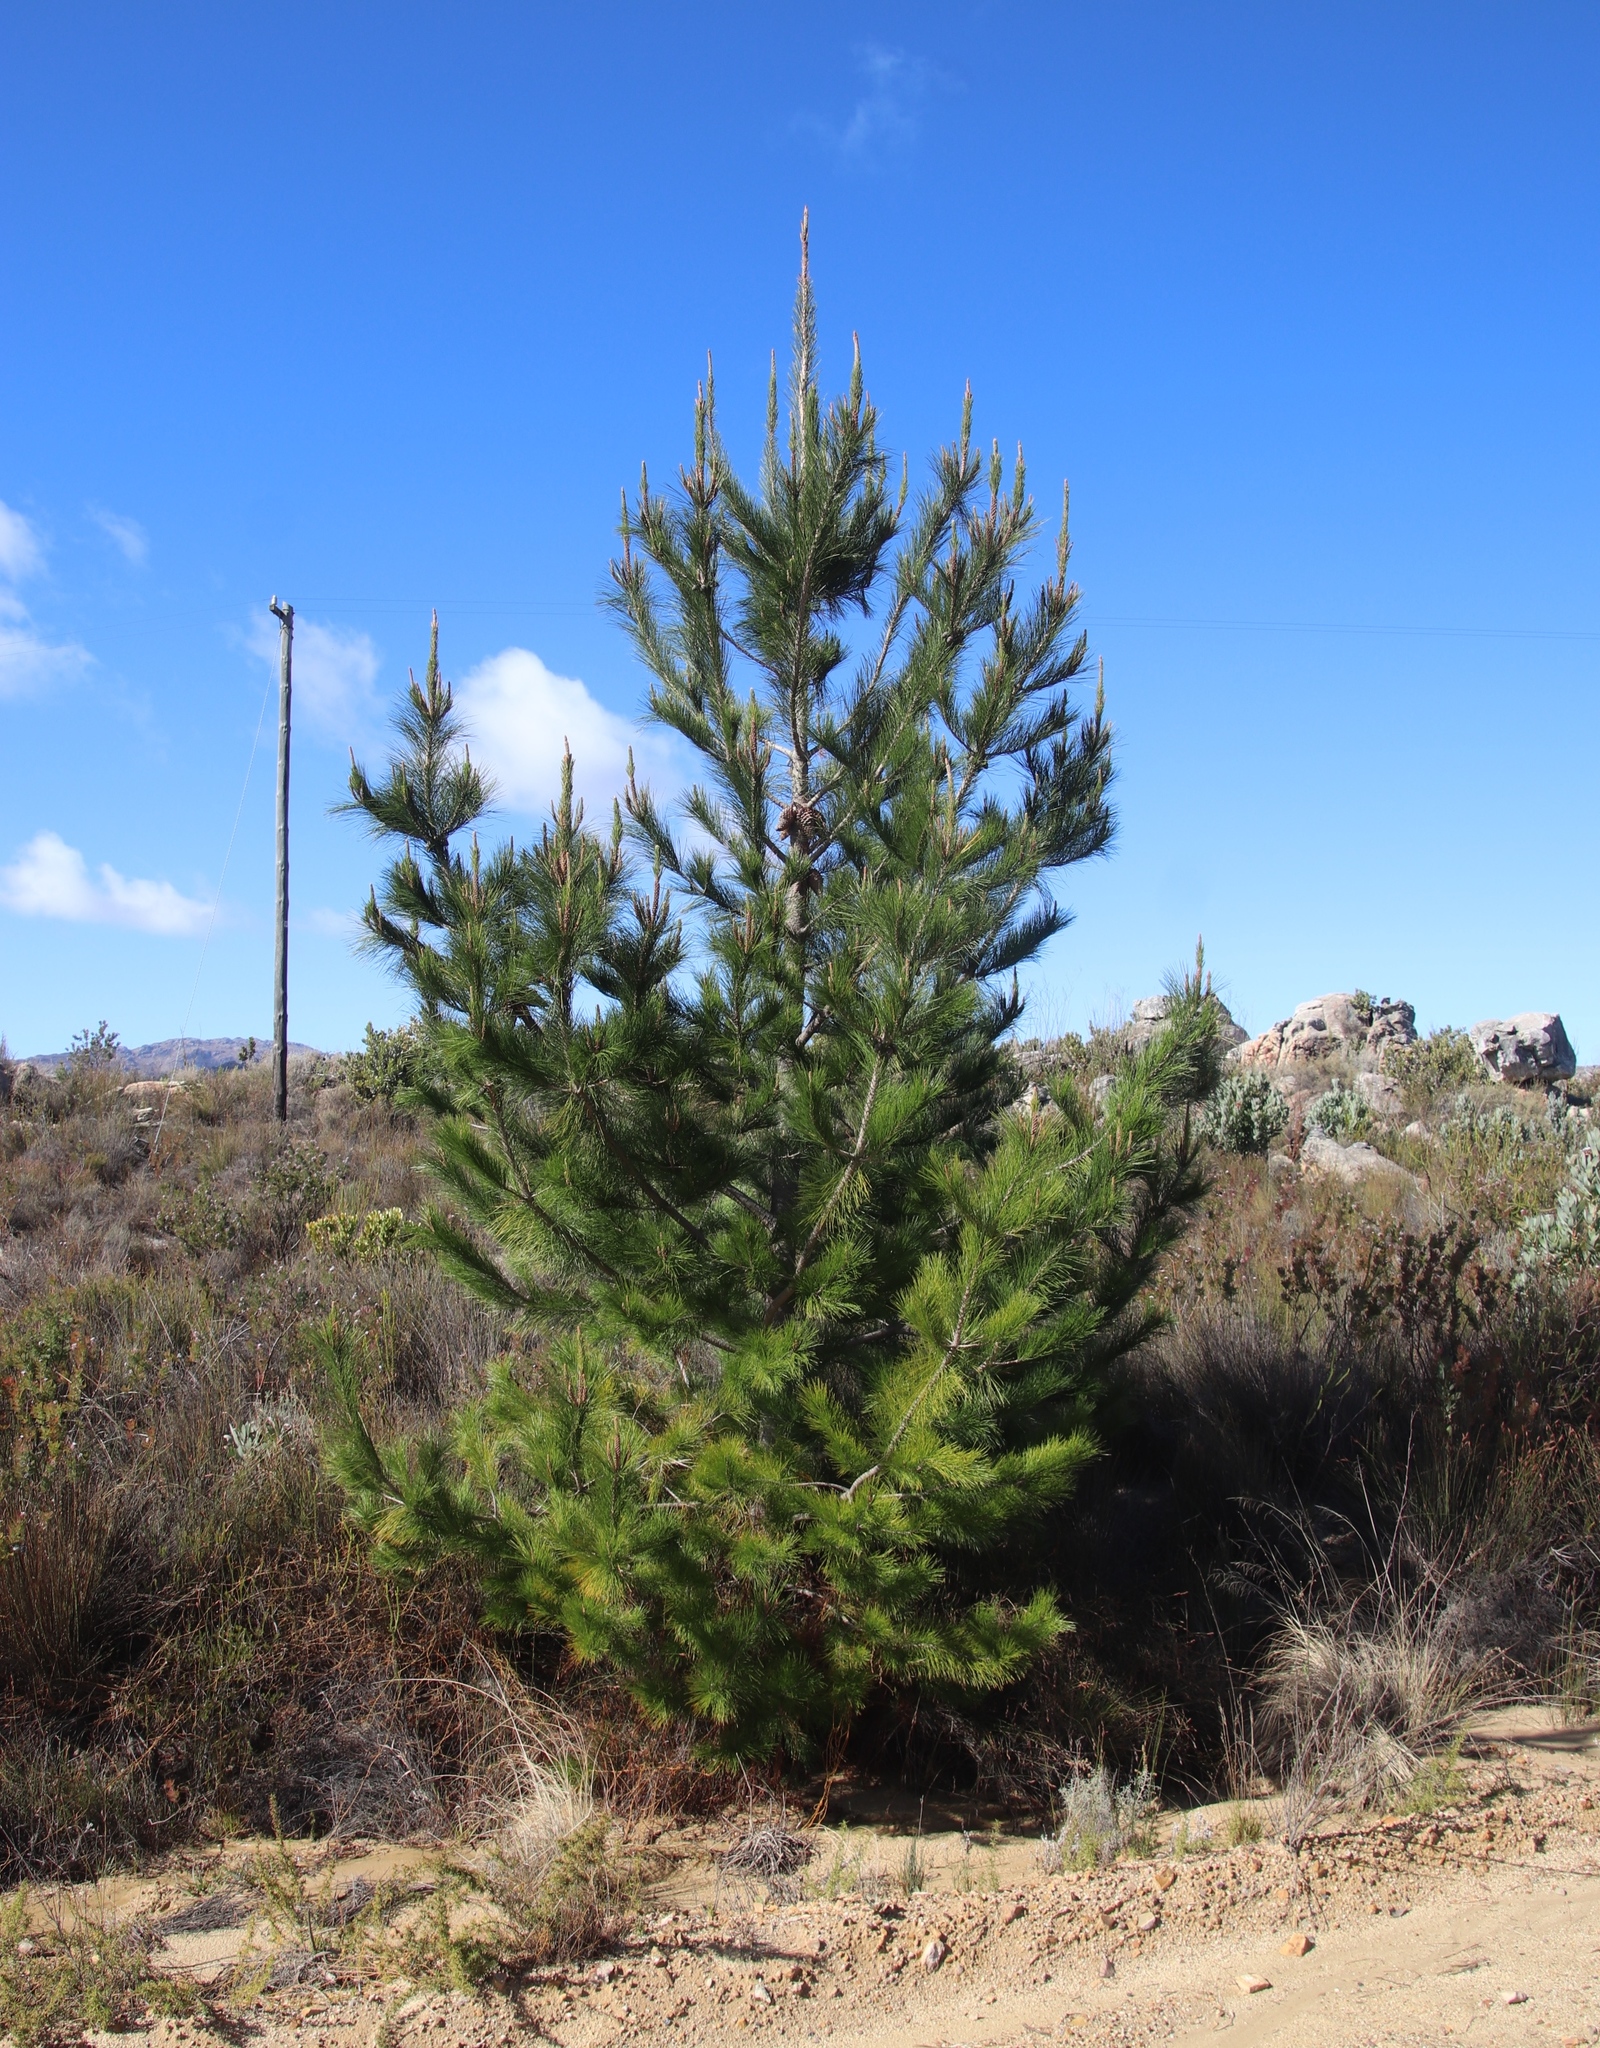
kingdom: Plantae
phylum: Tracheophyta
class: Pinopsida
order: Pinales
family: Pinaceae
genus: Pinus
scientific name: Pinus radiata
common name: Monterey pine
